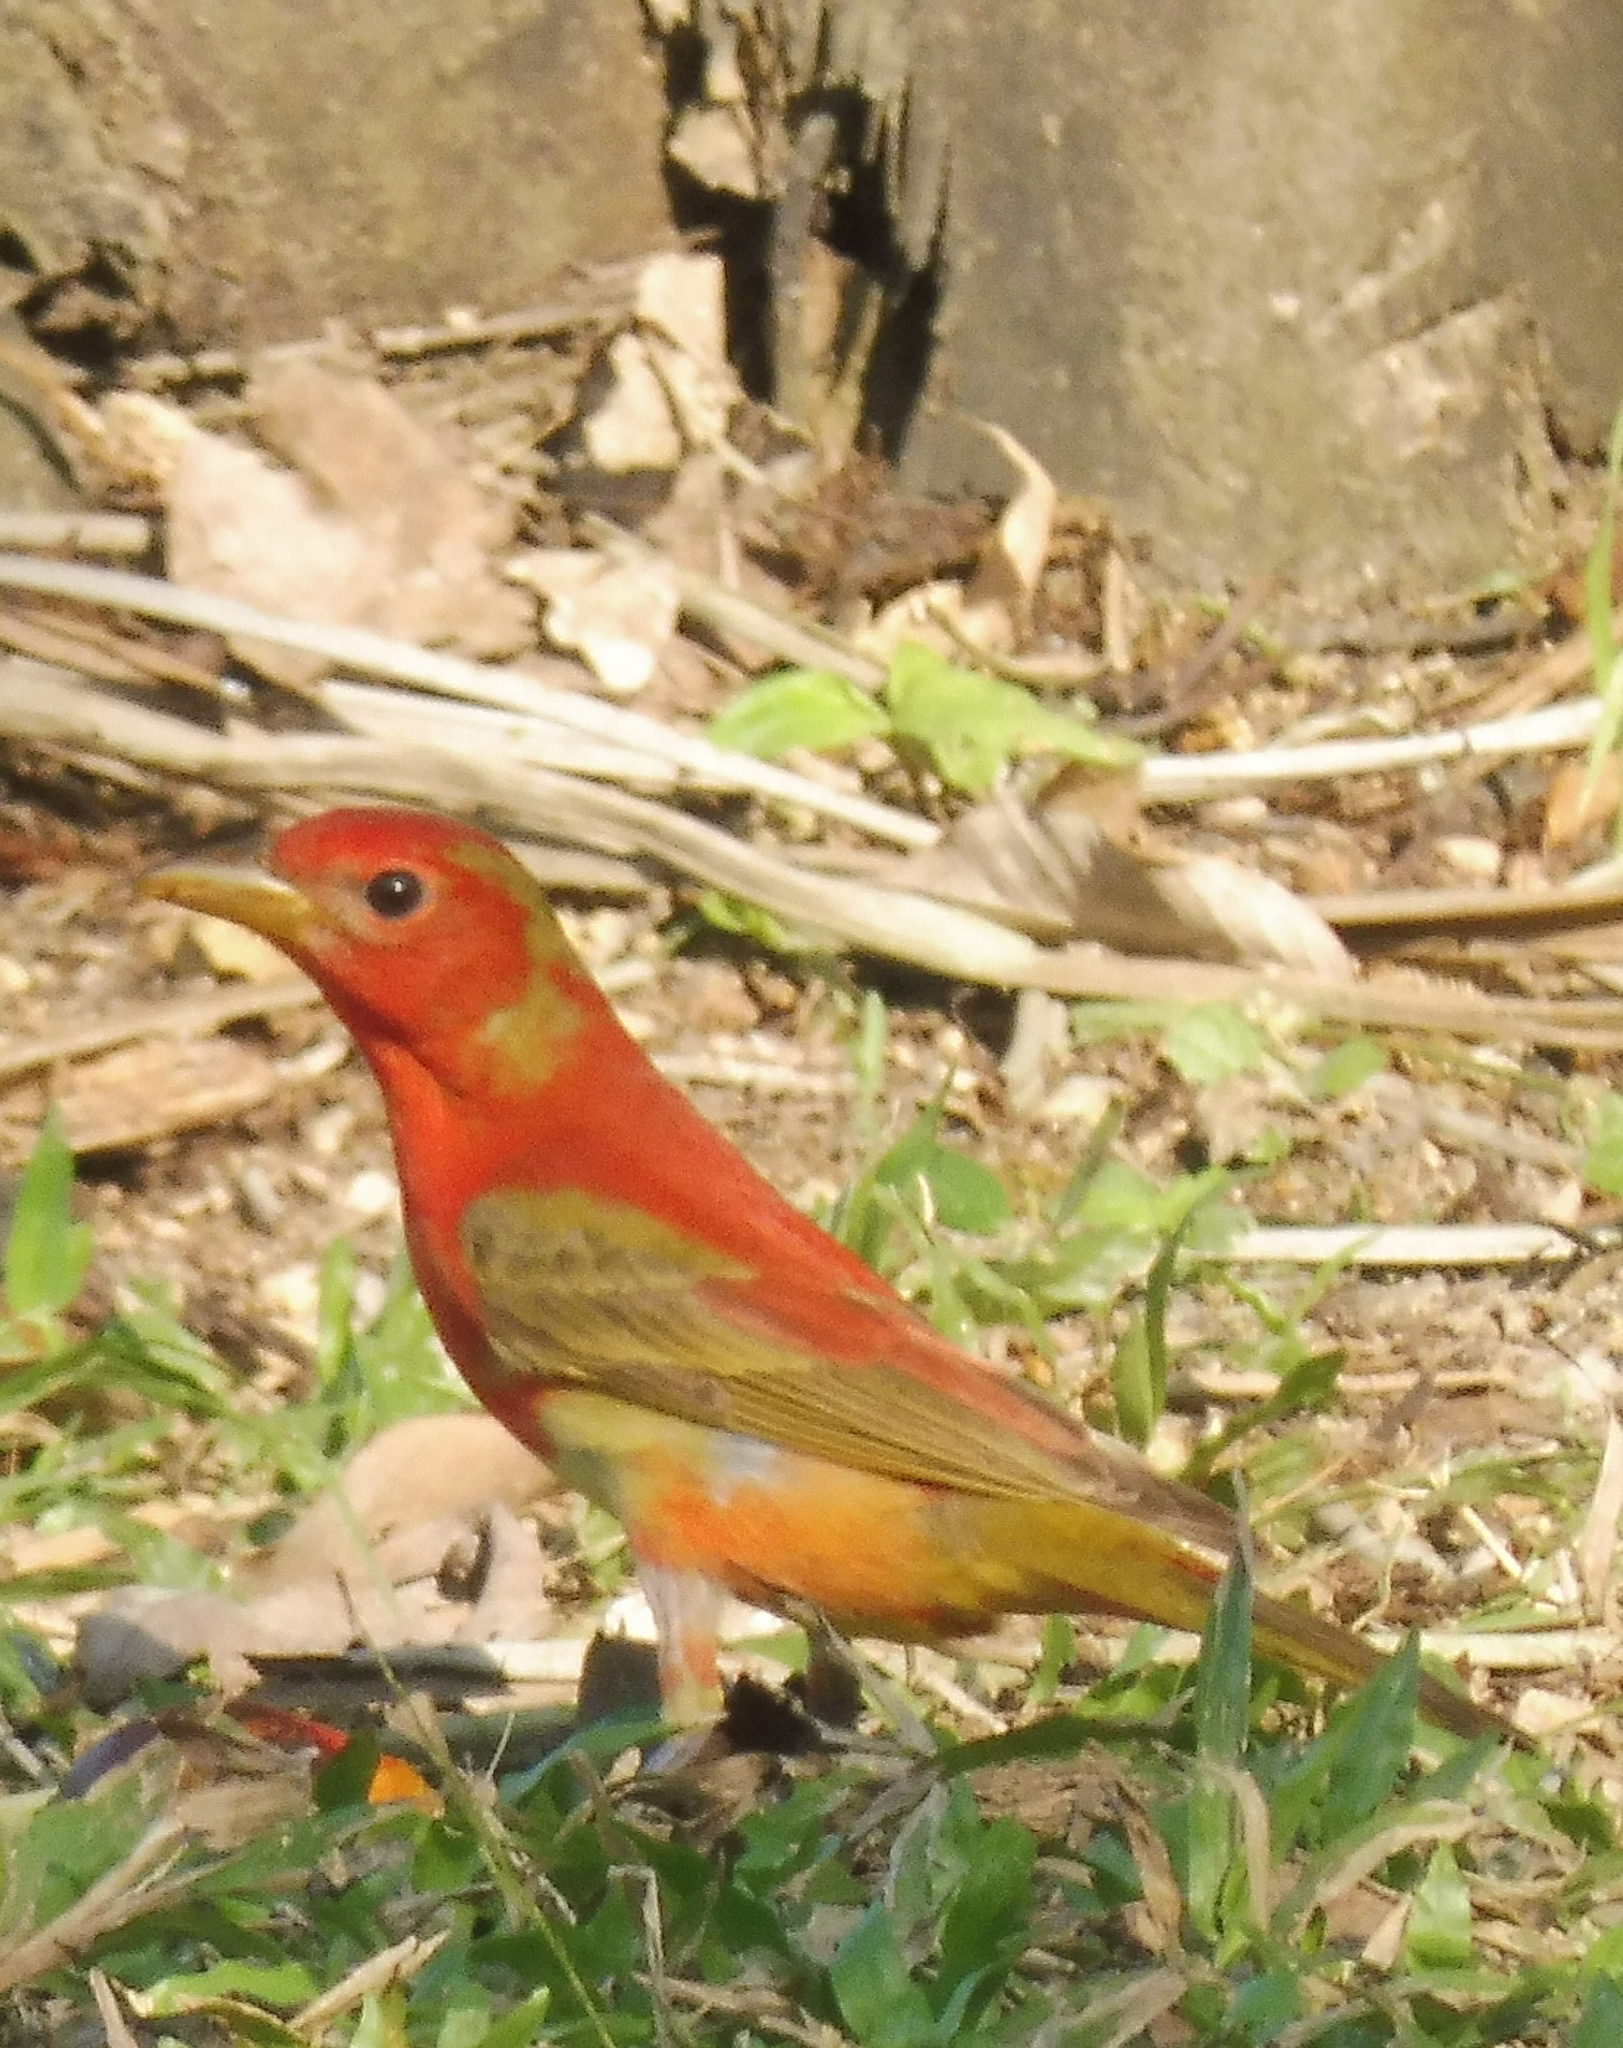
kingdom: Animalia
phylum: Chordata
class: Aves
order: Passeriformes
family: Cardinalidae
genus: Piranga
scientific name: Piranga rubra
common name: Summer tanager
